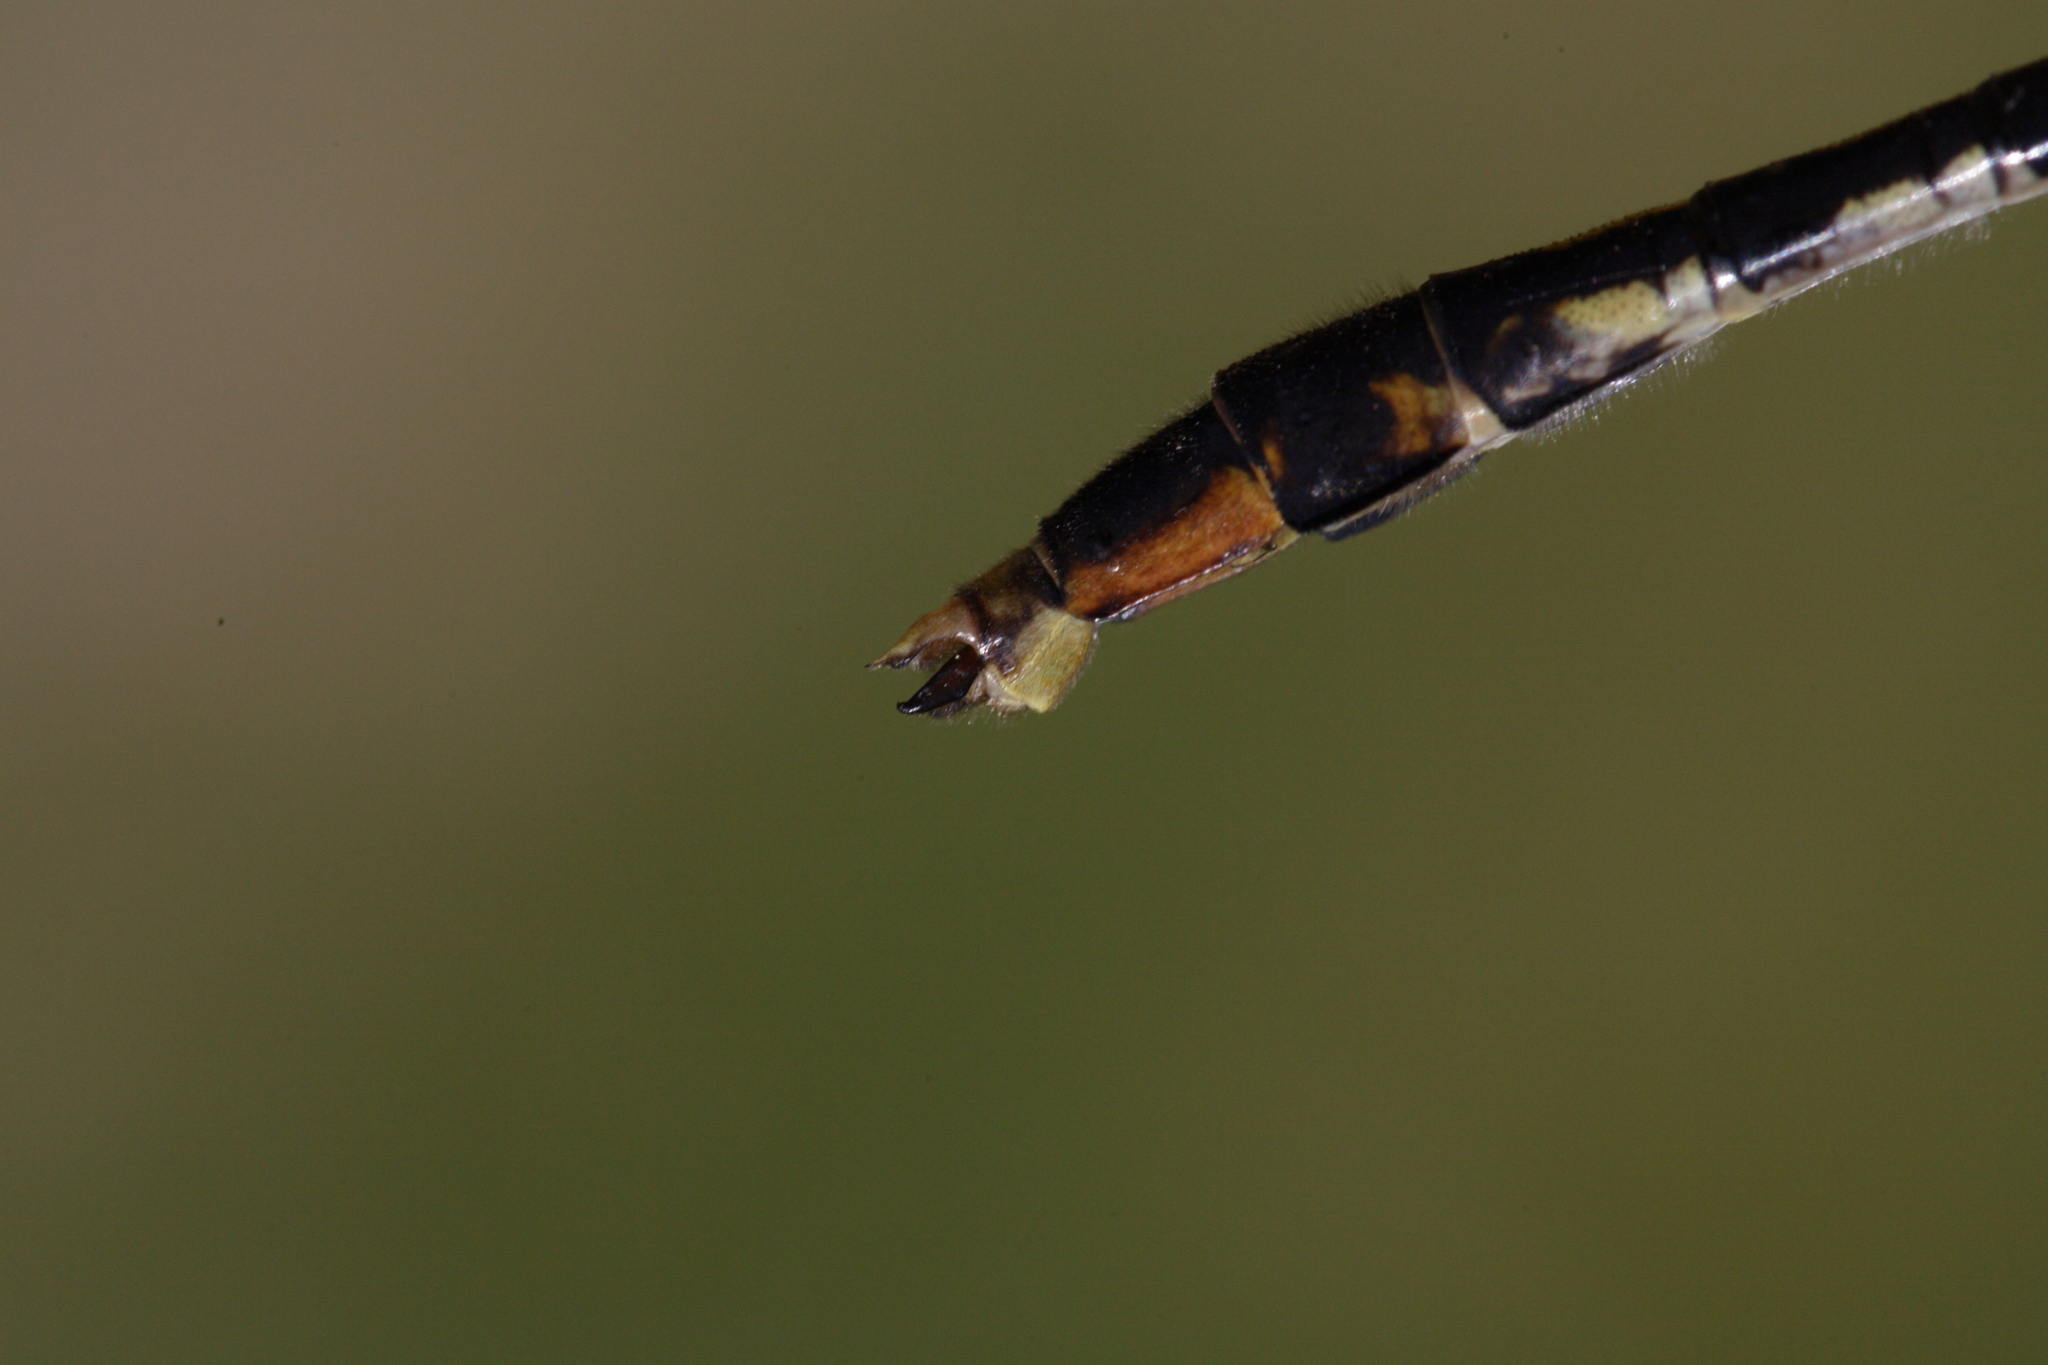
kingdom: Animalia
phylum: Arthropoda
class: Insecta
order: Odonata
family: Gomphidae
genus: Arigomphus
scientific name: Arigomphus villosipes
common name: Unicorn clubtail
